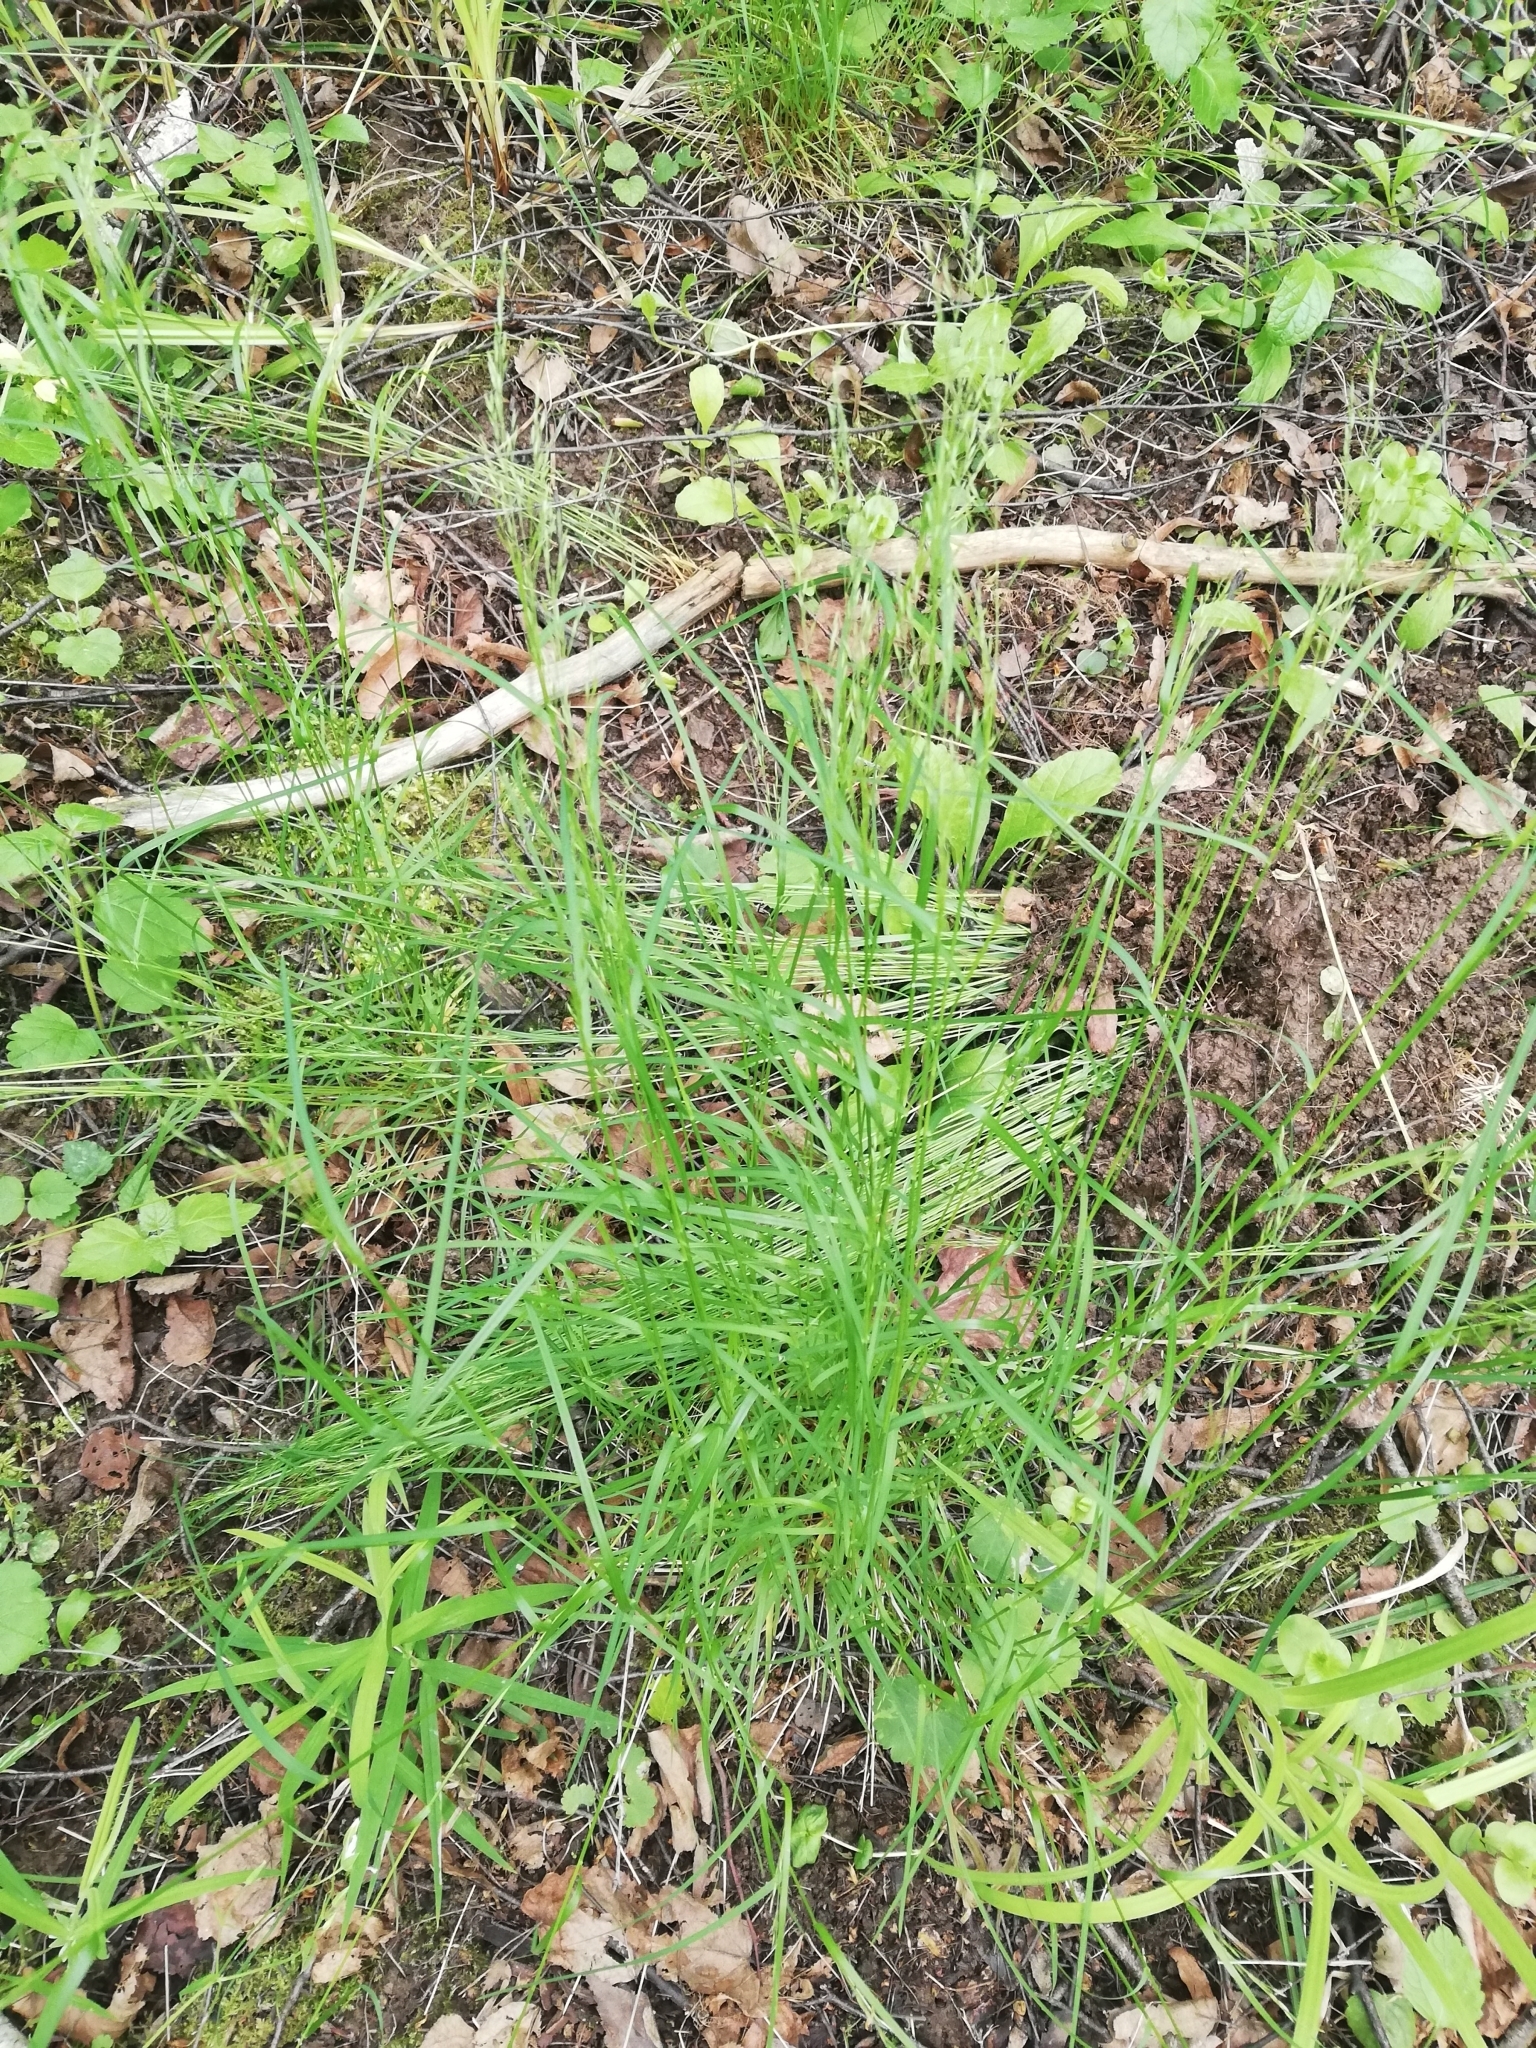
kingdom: Plantae
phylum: Tracheophyta
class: Liliopsida
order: Poales
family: Poaceae
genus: Poa
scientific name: Poa nemoralis
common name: Wood bluegrass
